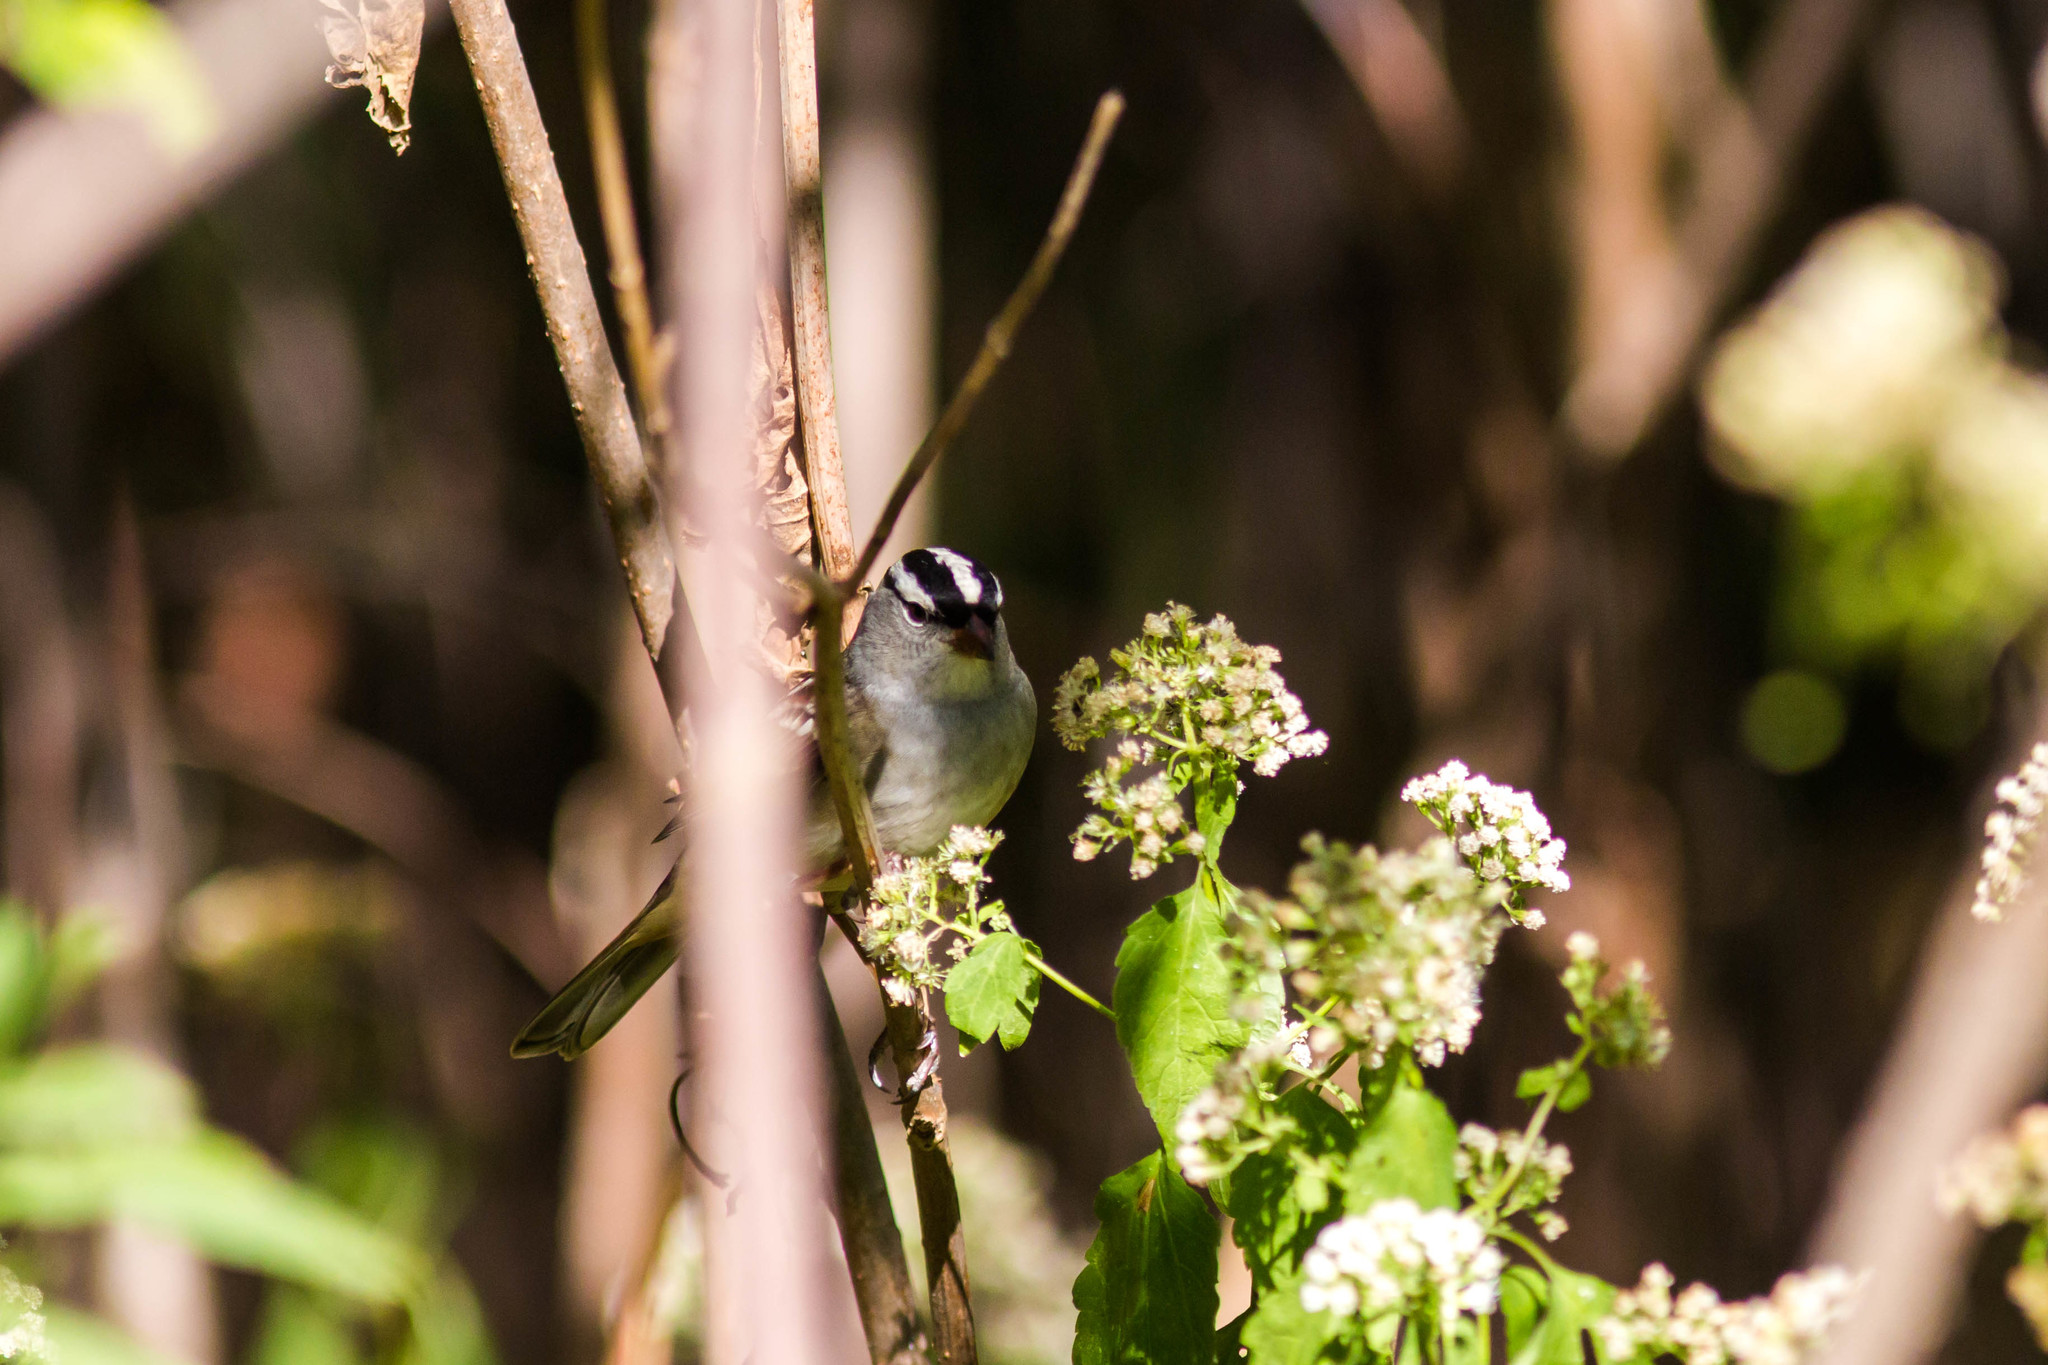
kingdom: Animalia
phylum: Chordata
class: Aves
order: Passeriformes
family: Passerellidae
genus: Zonotrichia
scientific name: Zonotrichia leucophrys
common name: White-crowned sparrow
